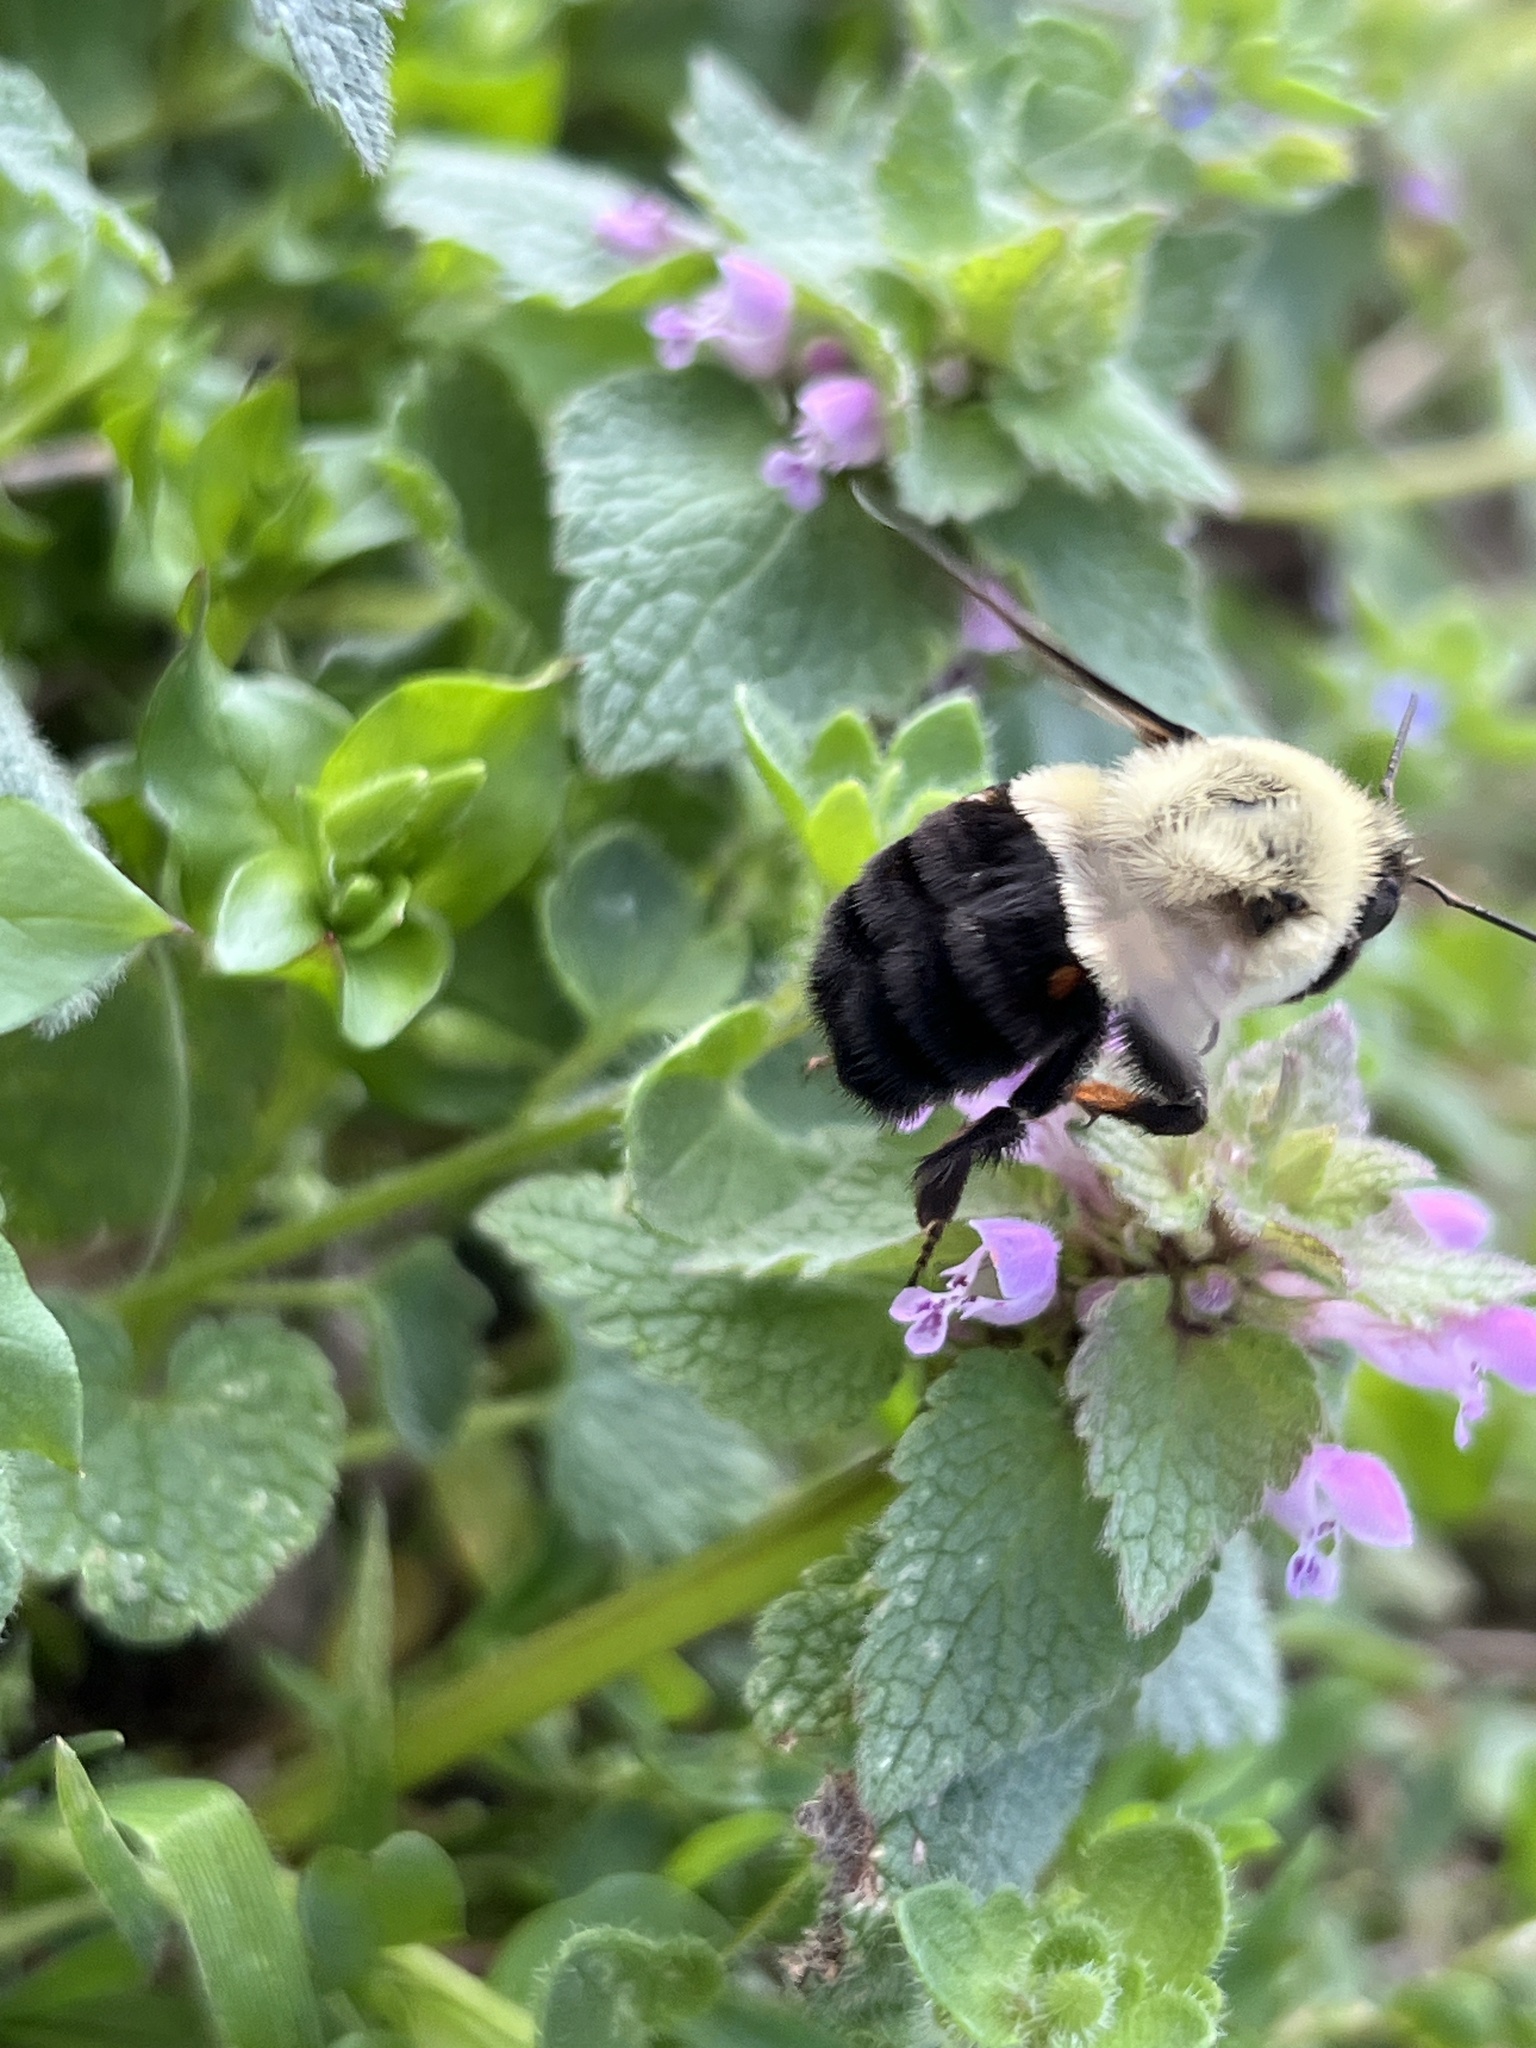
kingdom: Animalia
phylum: Arthropoda
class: Insecta
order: Hymenoptera
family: Apidae
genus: Bombus
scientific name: Bombus impatiens
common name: Common eastern bumble bee
